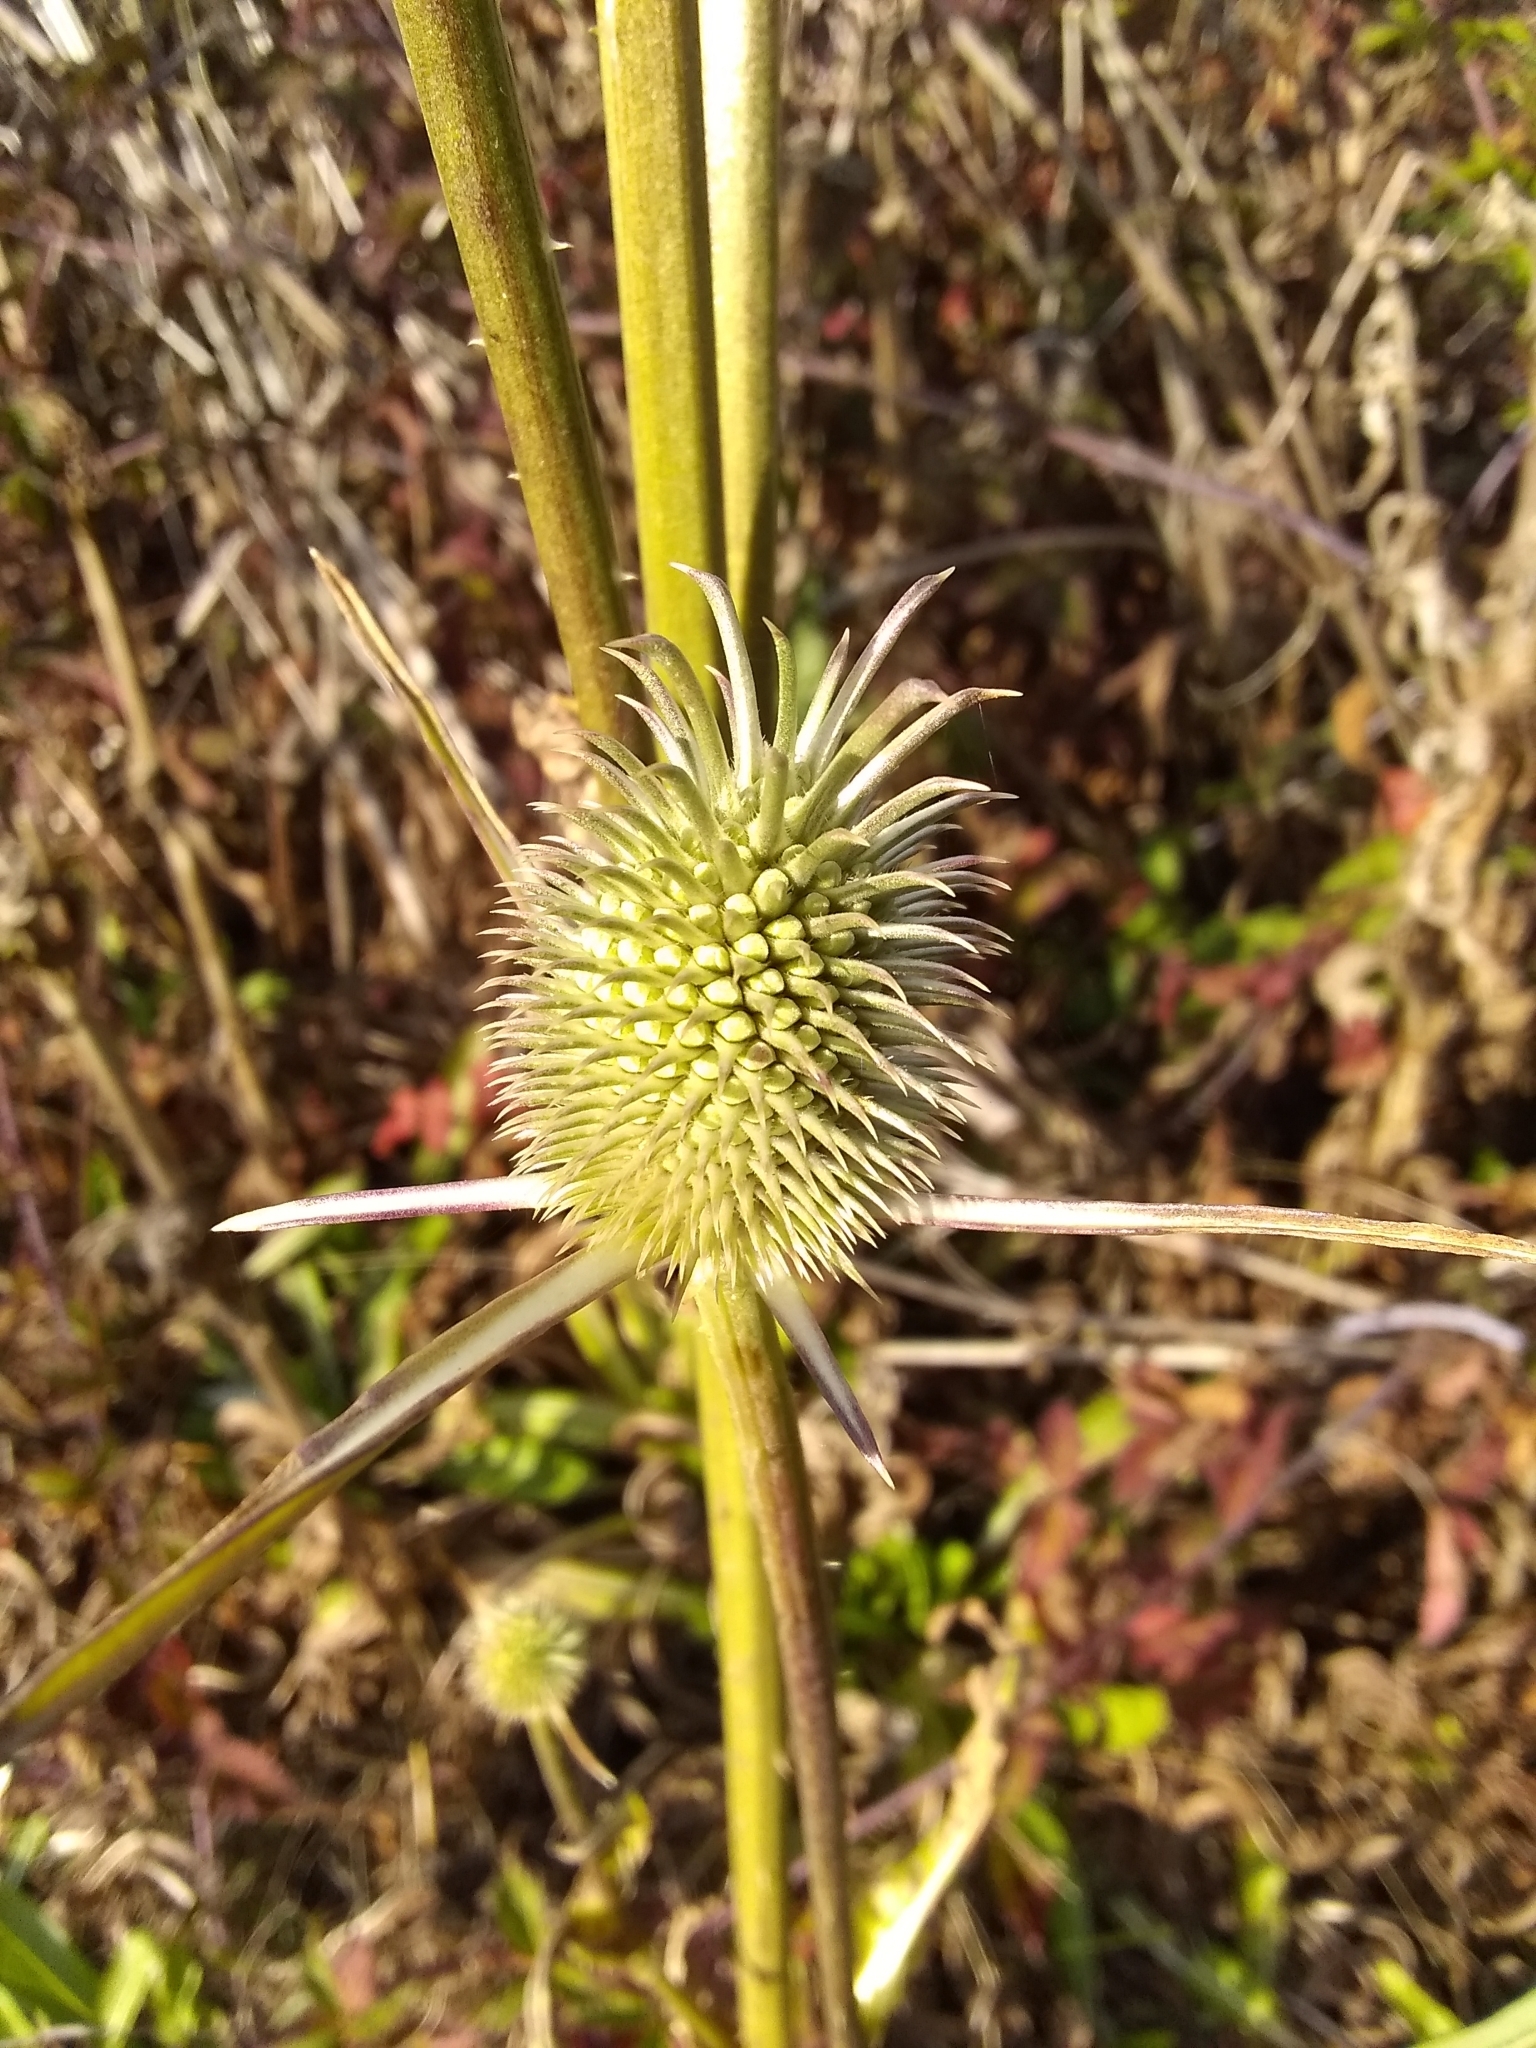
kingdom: Plantae
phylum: Tracheophyta
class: Magnoliopsida
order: Dipsacales
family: Caprifoliaceae
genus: Dipsacus
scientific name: Dipsacus sativus
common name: Fuller's teasel
